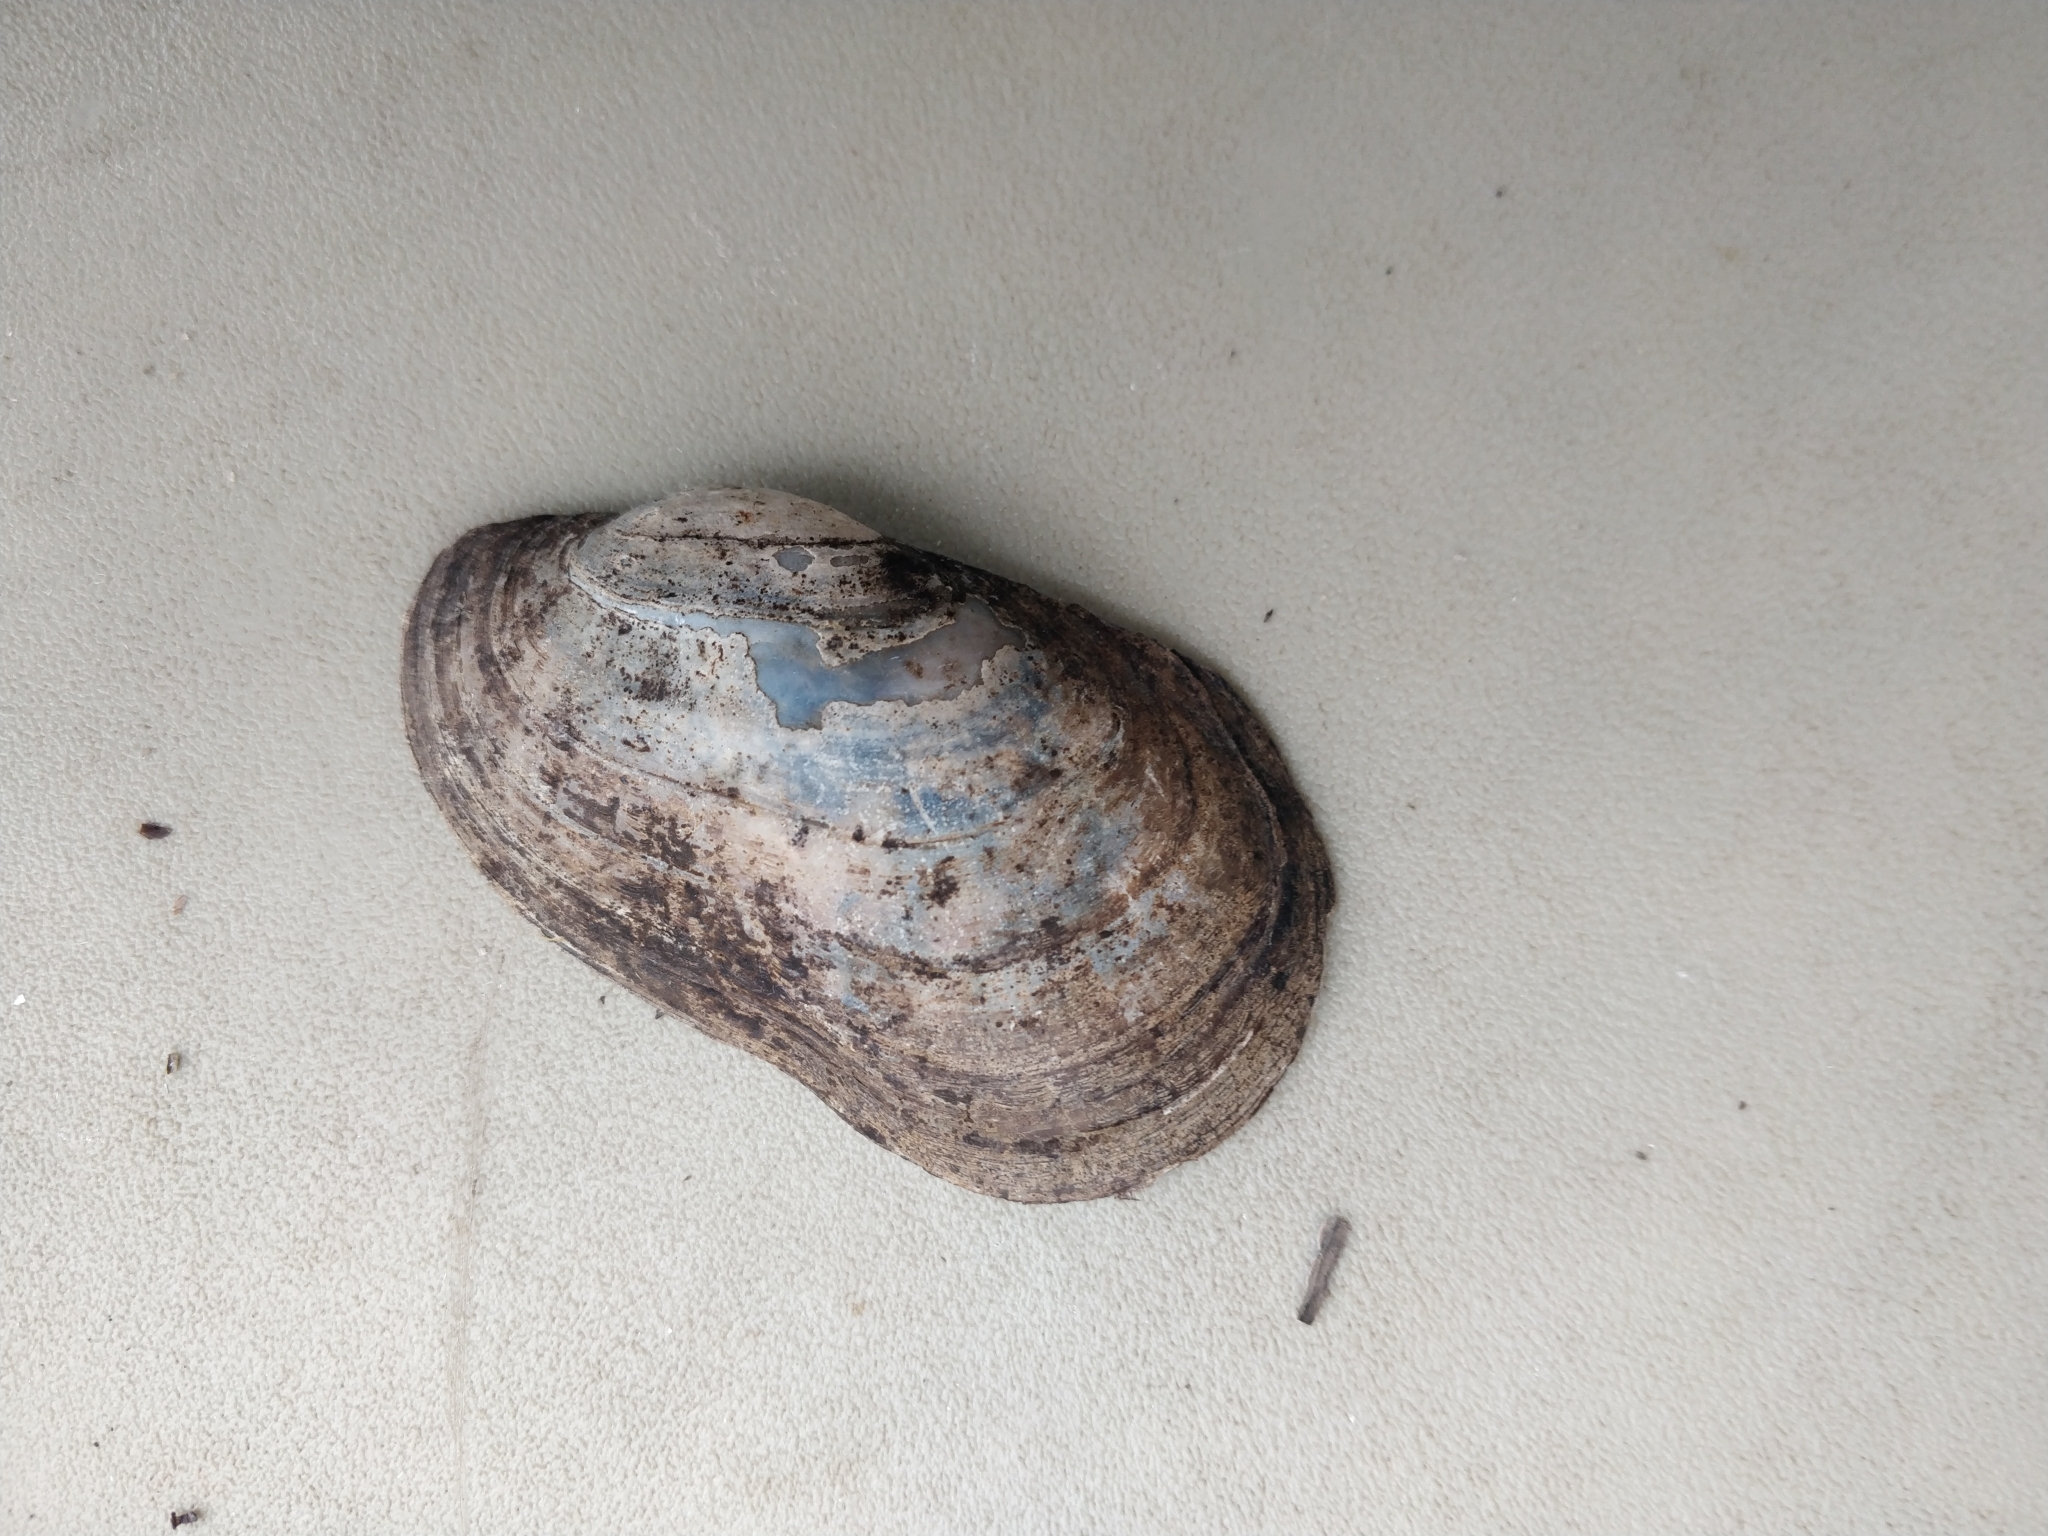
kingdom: Animalia
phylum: Mollusca
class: Bivalvia
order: Unionida
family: Unionidae
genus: Lampsilis
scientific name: Lampsilis siliquoidea
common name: Fatmucket
